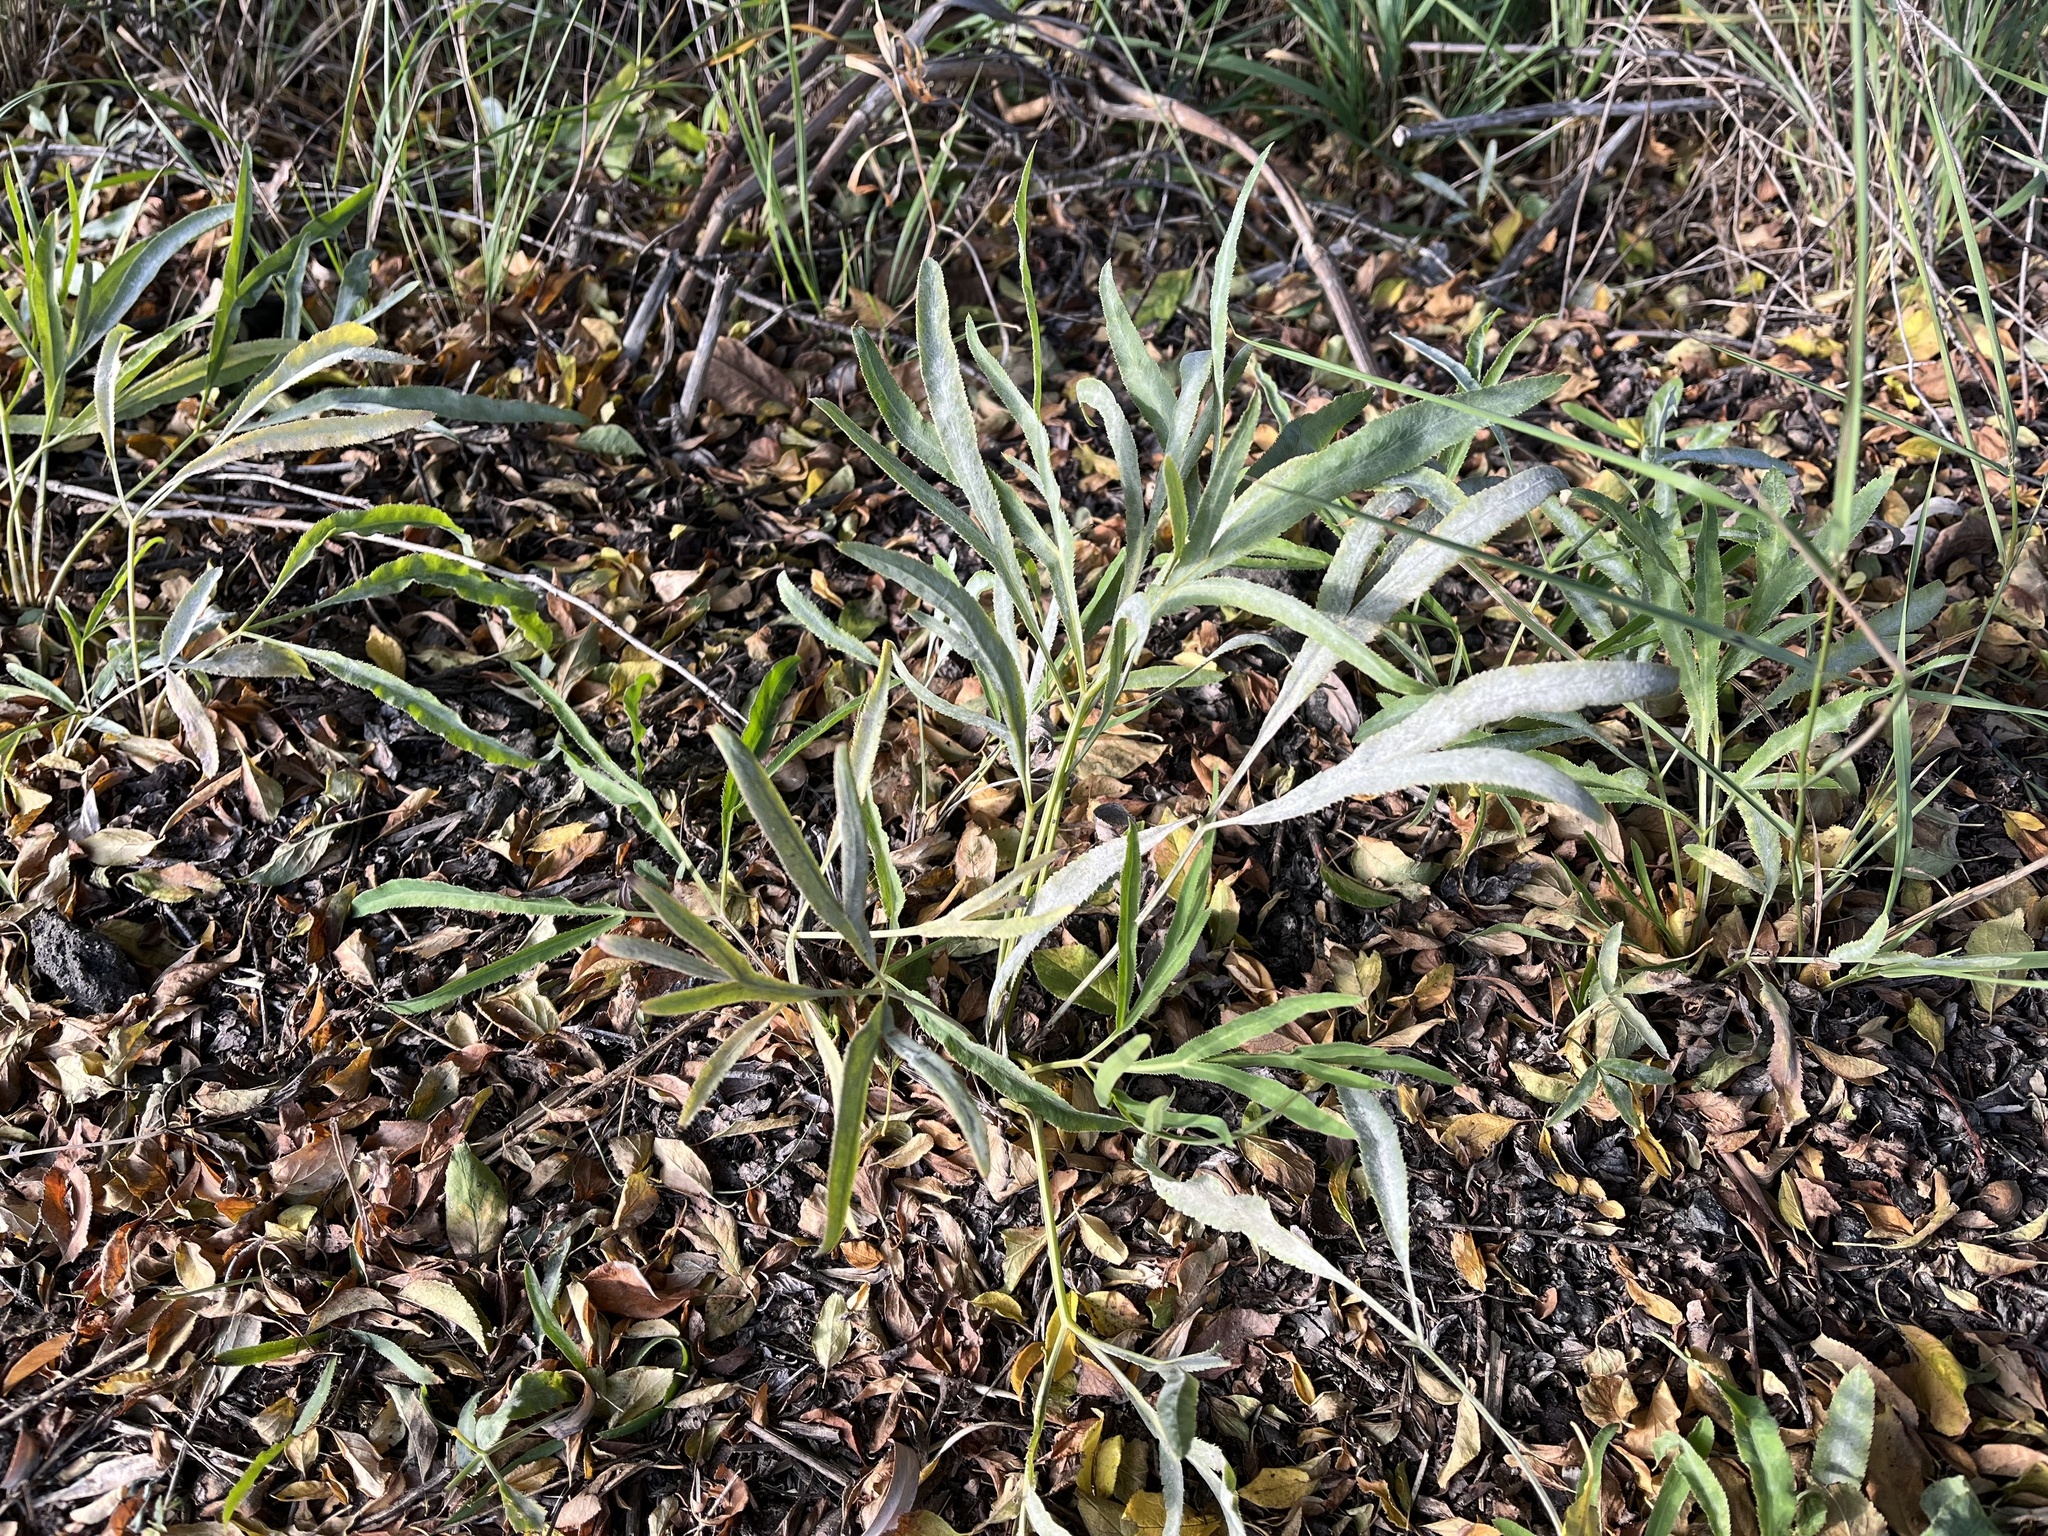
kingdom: Plantae
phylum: Tracheophyta
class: Magnoliopsida
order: Apiales
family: Apiaceae
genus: Falcaria
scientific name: Falcaria vulgaris
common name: Longleaf
